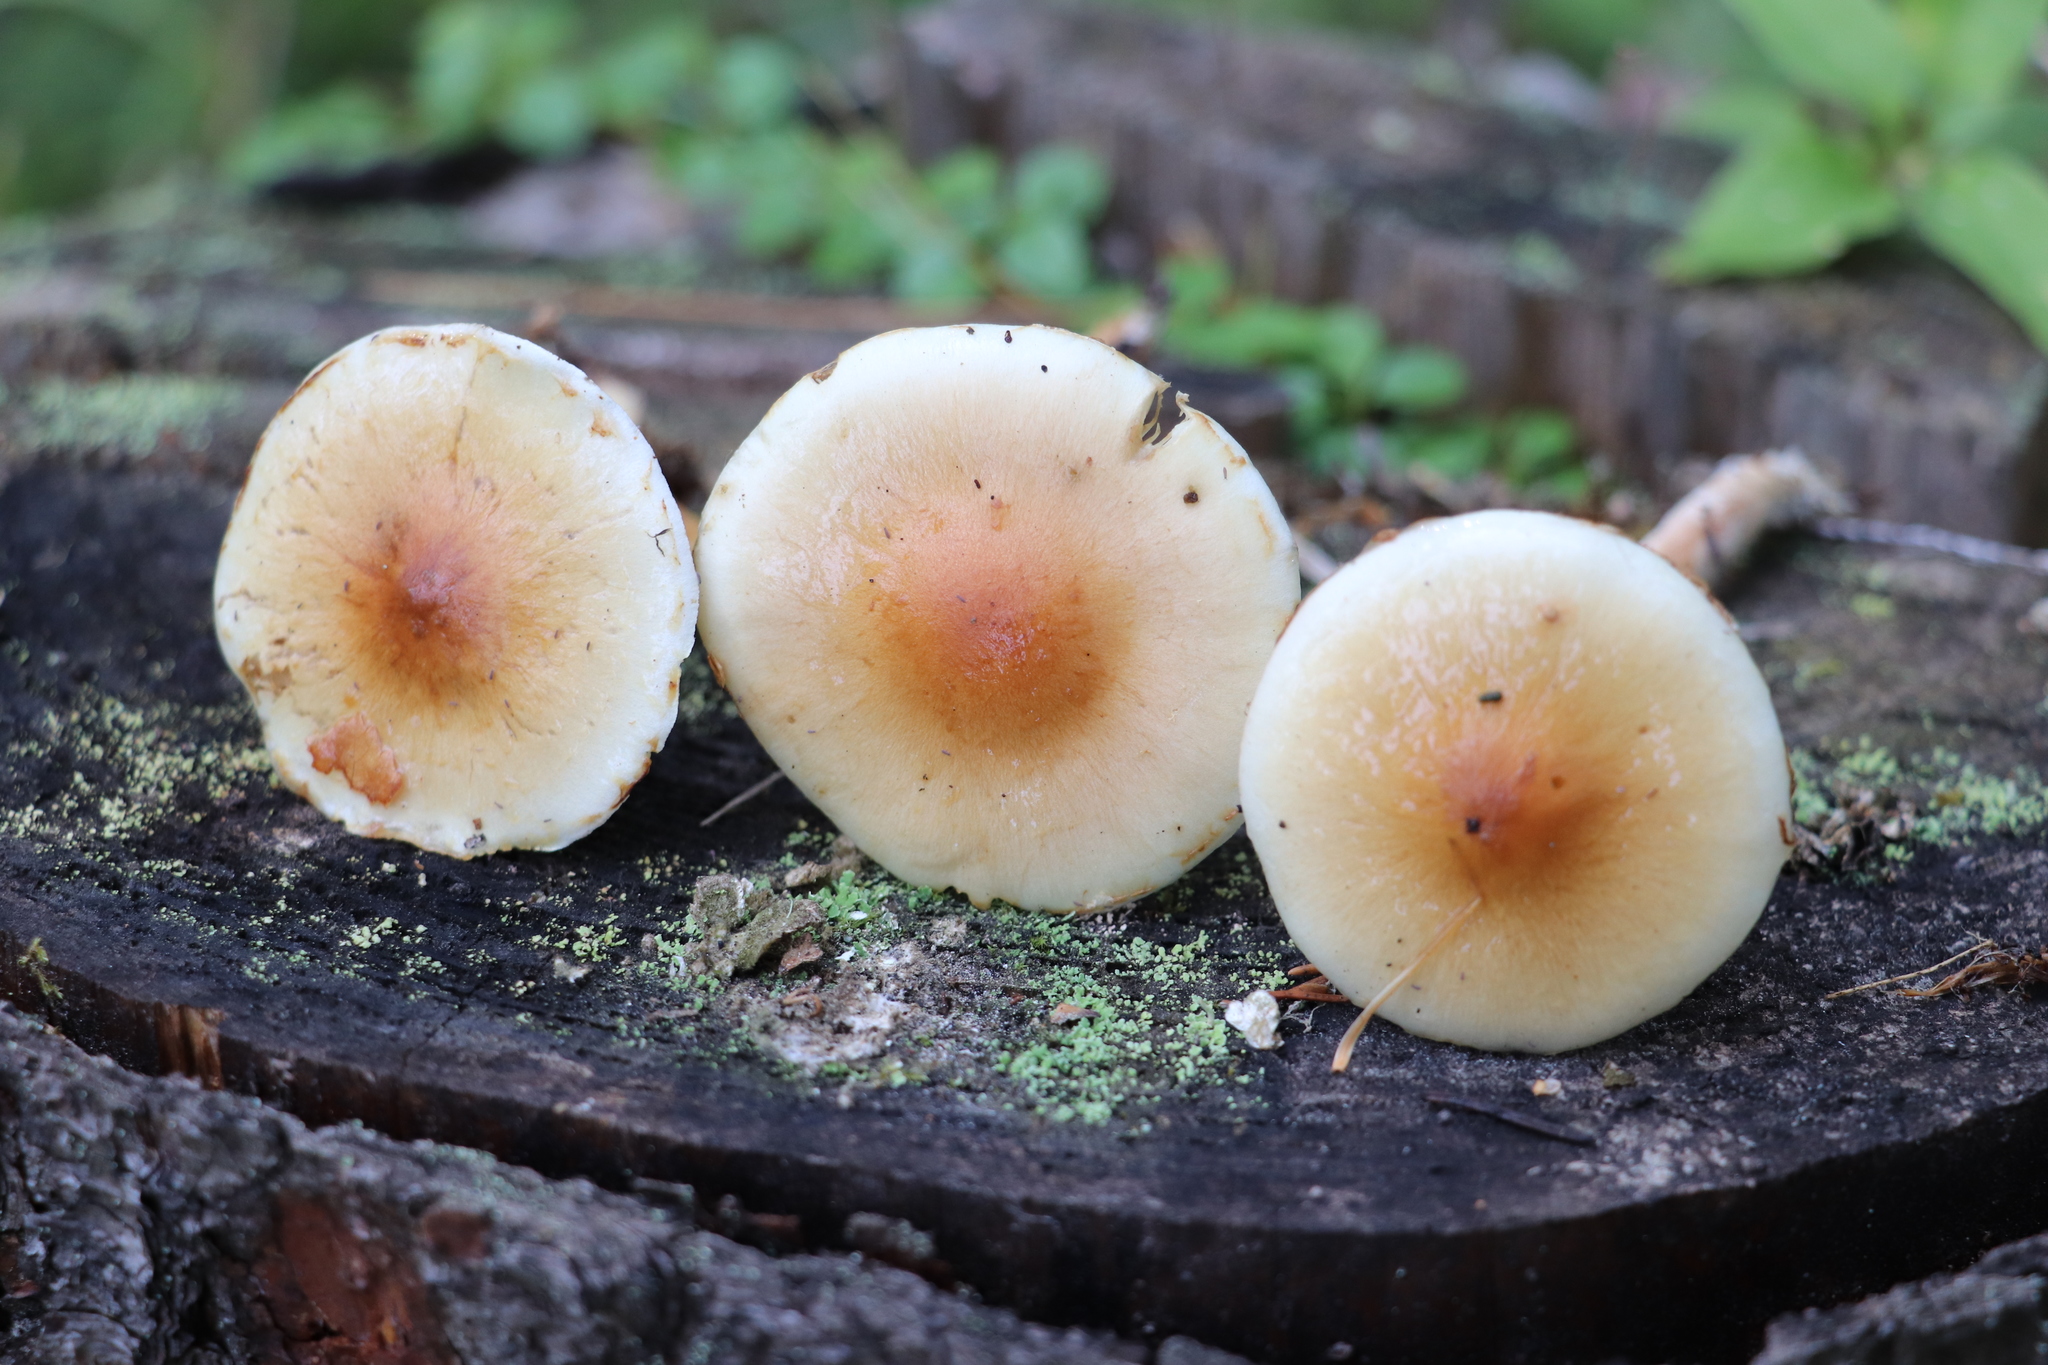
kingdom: Fungi
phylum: Basidiomycota
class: Agaricomycetes
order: Agaricales
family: Strophariaceae
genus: Hypholoma
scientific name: Hypholoma capnoides
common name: Conifer tuft
